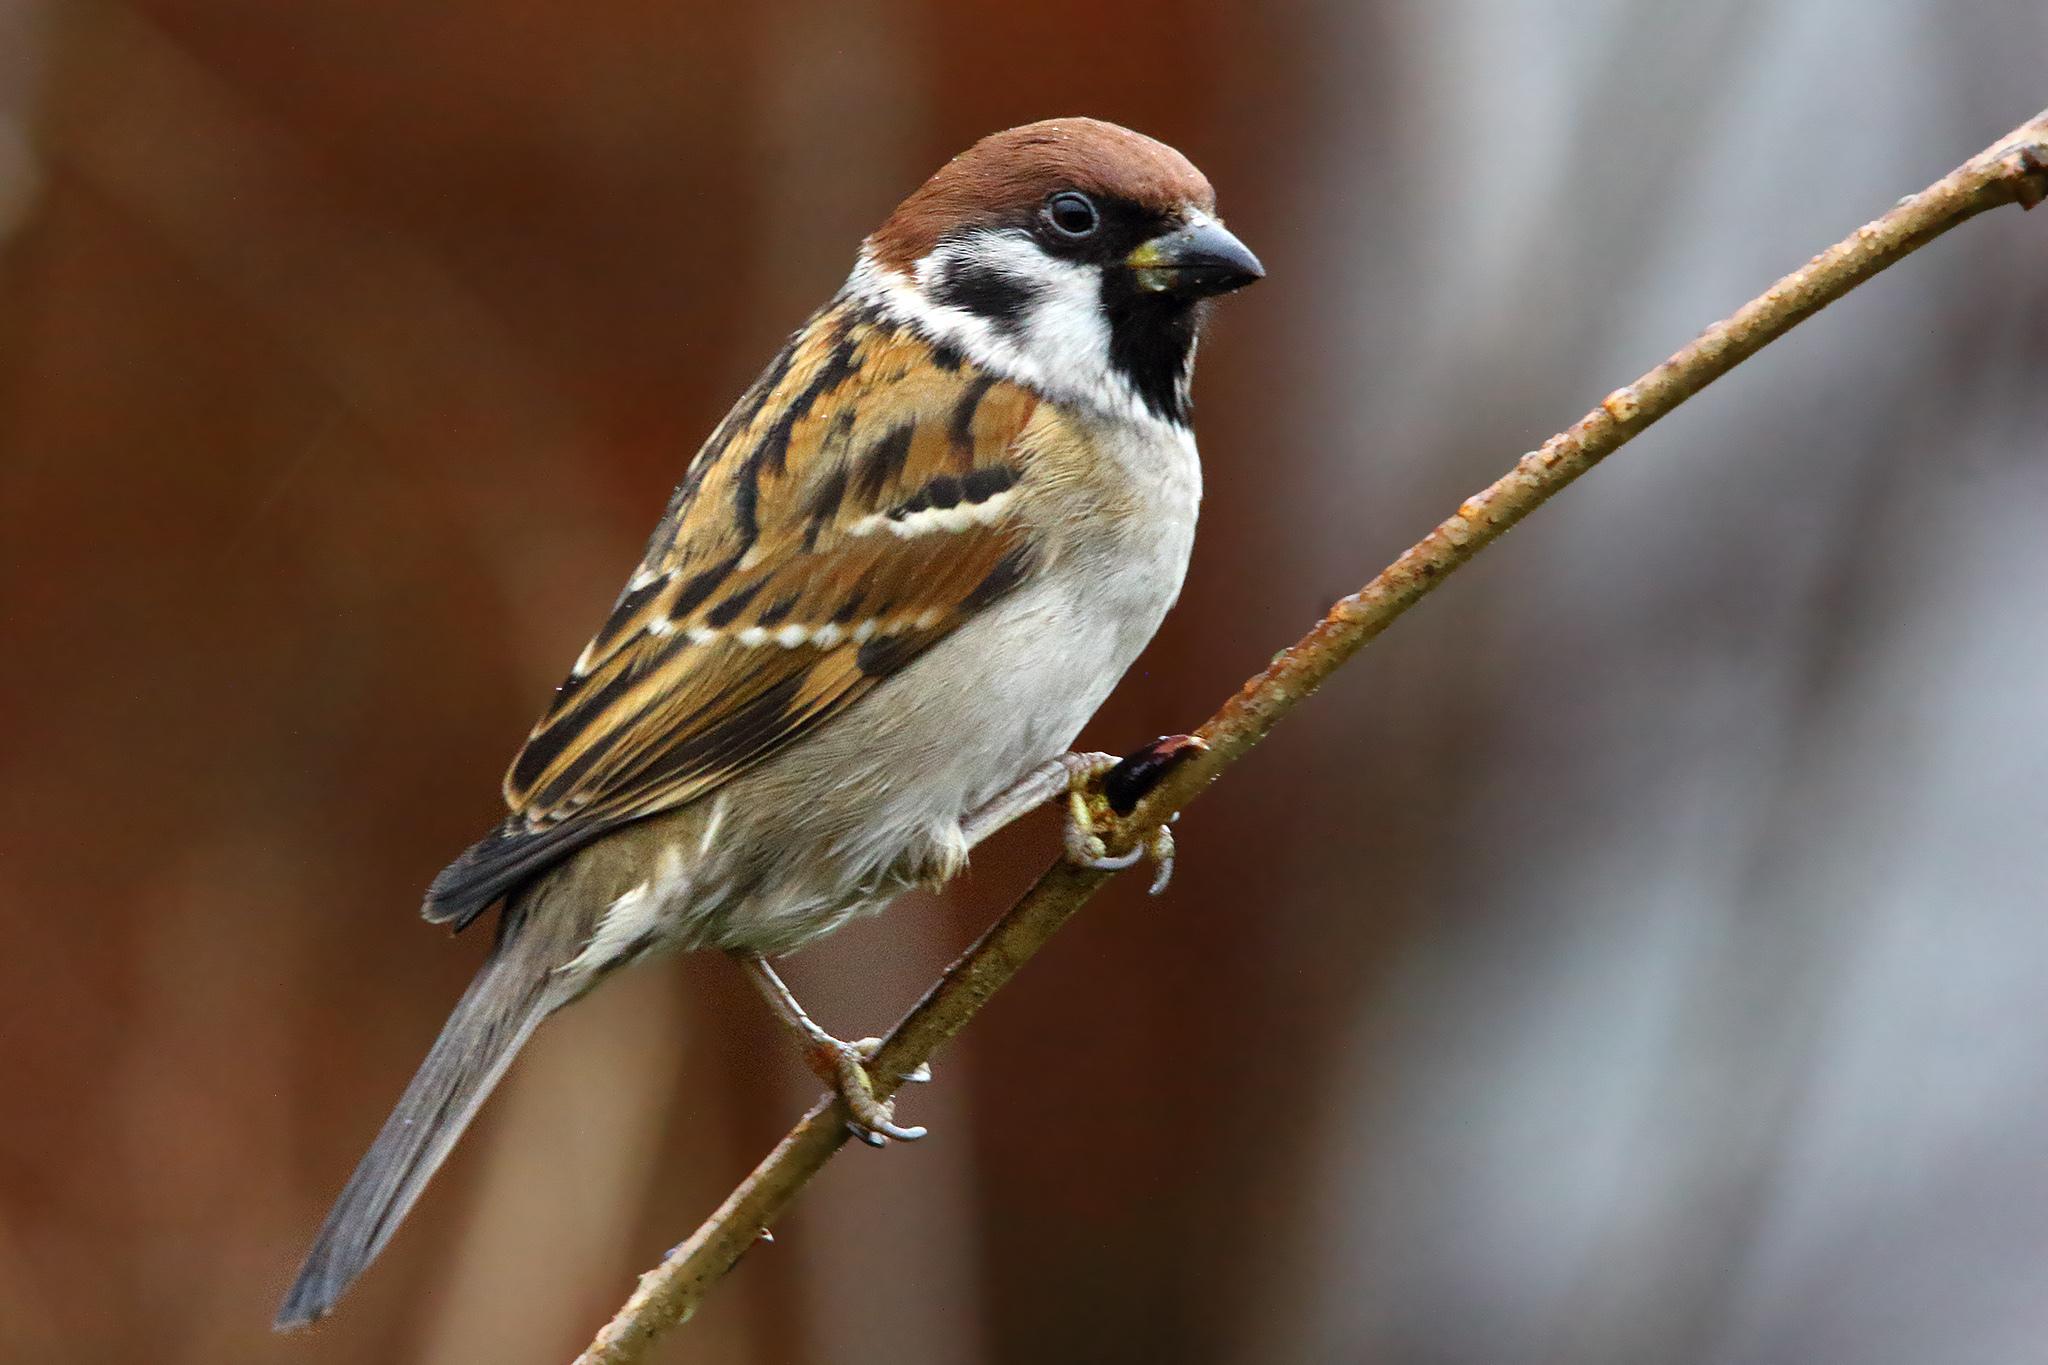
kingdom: Animalia
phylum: Chordata
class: Aves
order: Passeriformes
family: Passeridae
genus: Passer
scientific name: Passer montanus
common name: Eurasian tree sparrow
